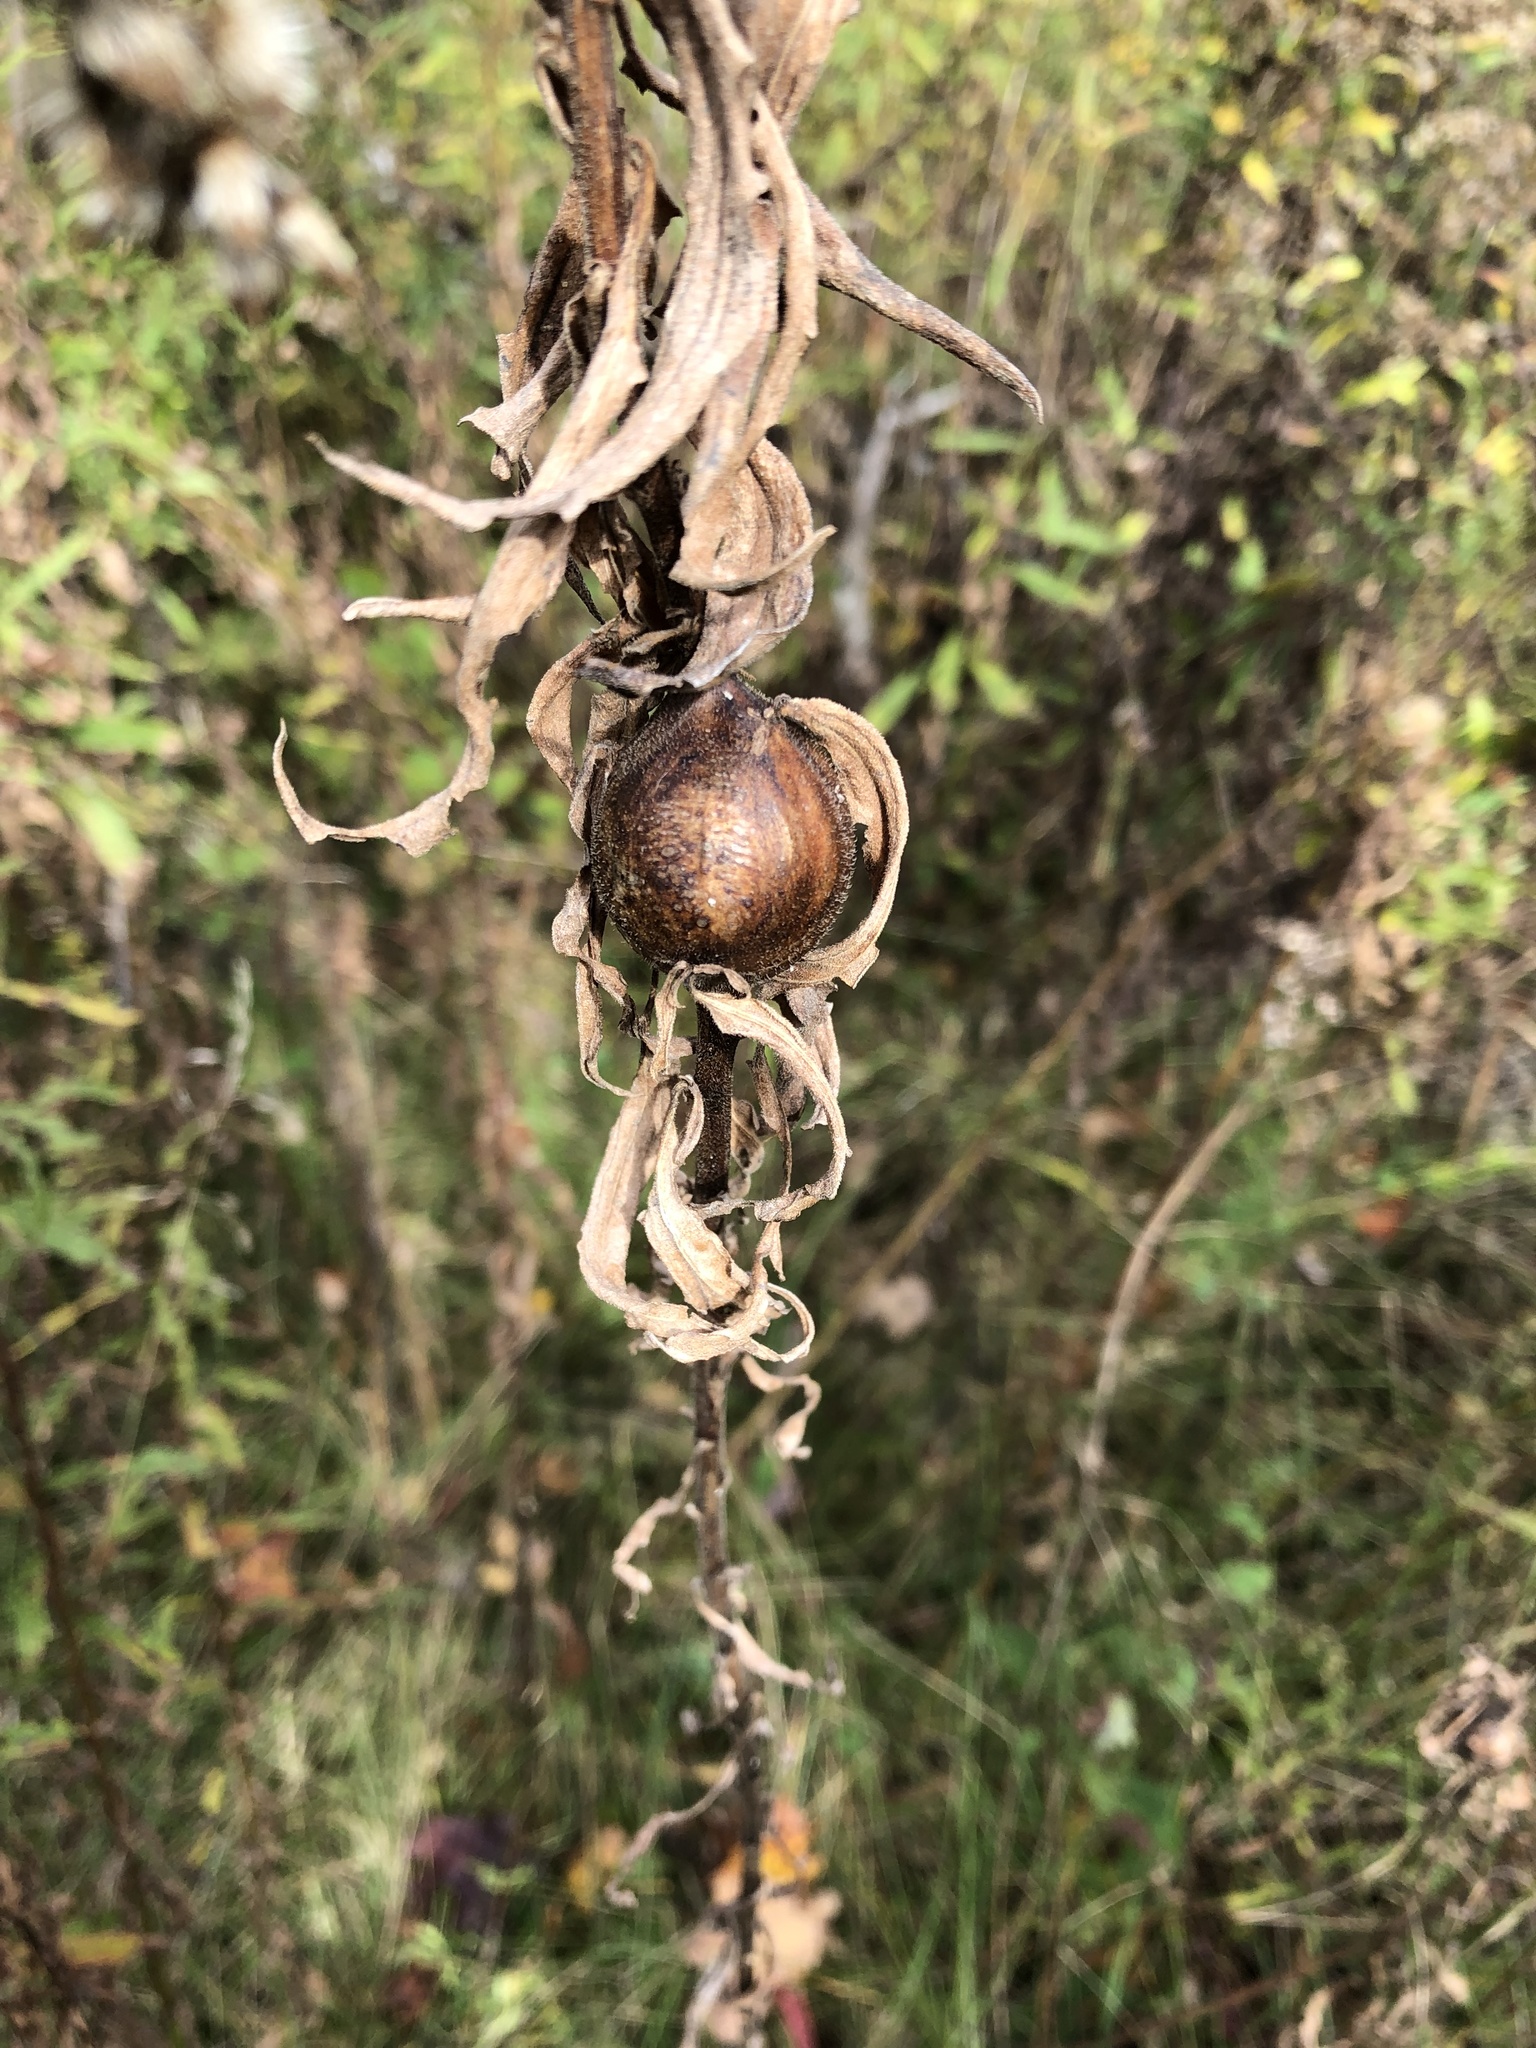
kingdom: Animalia
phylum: Arthropoda
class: Insecta
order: Diptera
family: Tephritidae
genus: Eurosta
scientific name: Eurosta solidaginis
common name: Goldenrod gall fly
